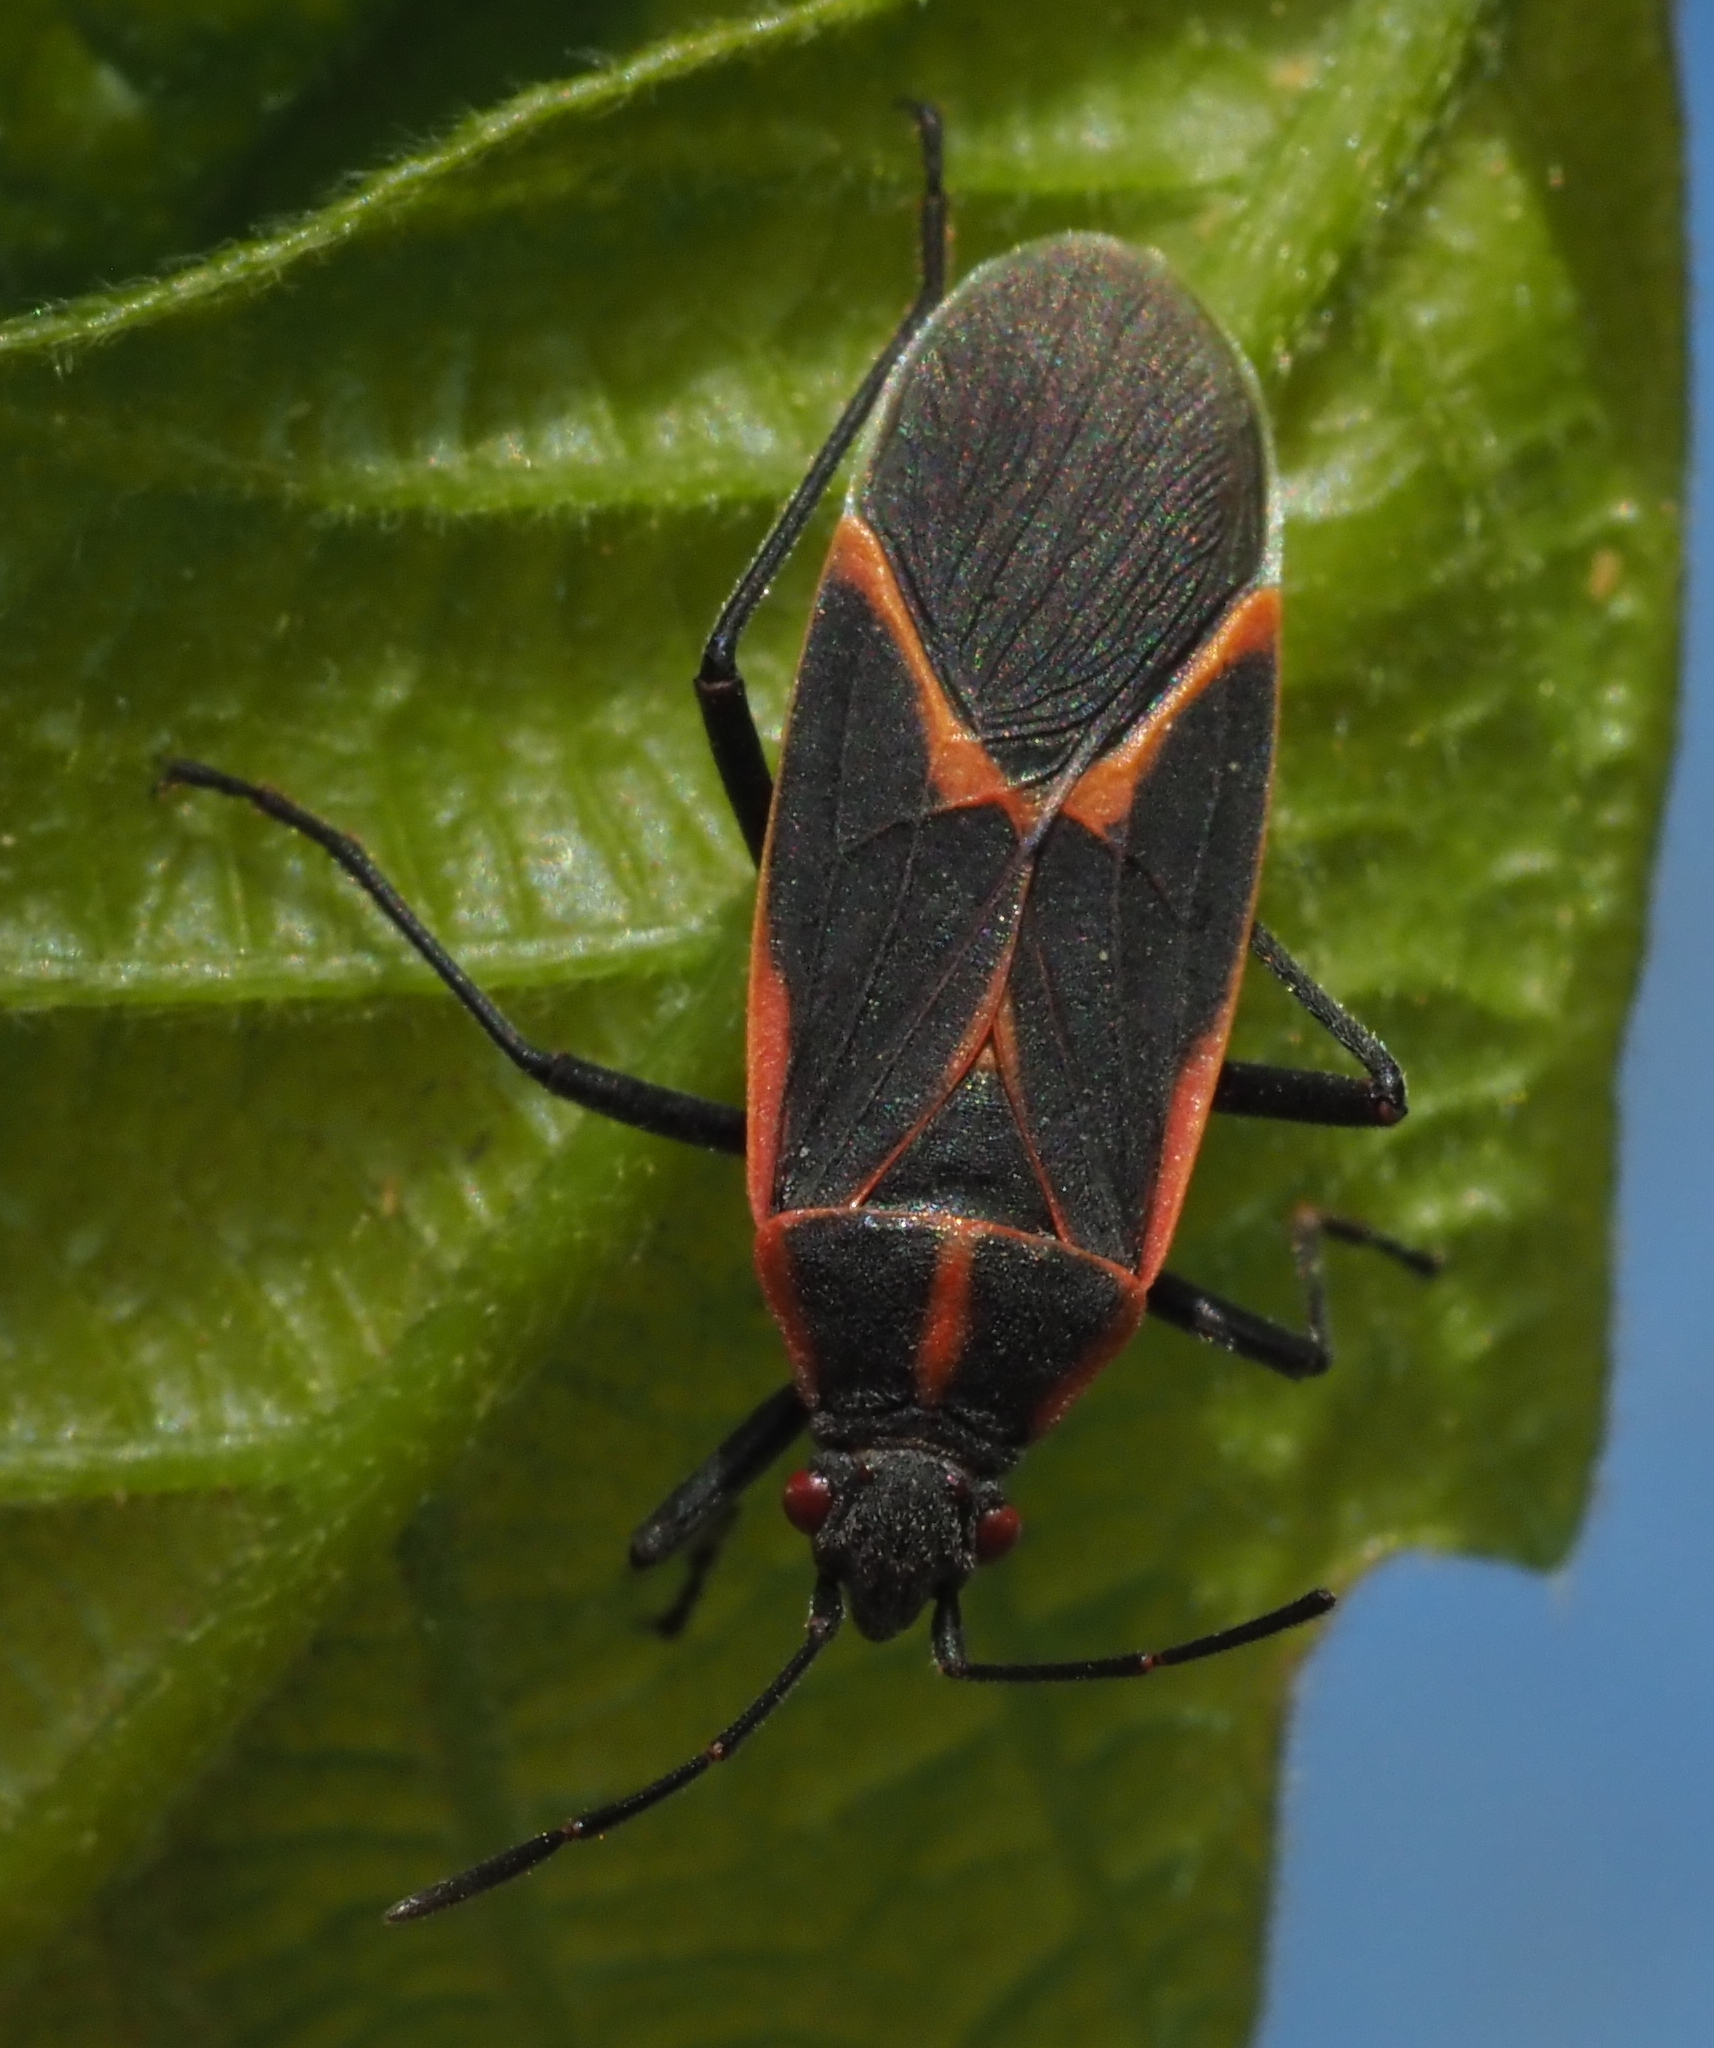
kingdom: Animalia
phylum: Arthropoda
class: Insecta
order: Hemiptera
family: Rhopalidae
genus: Boisea
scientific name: Boisea trivittata
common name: Boxelder bug
